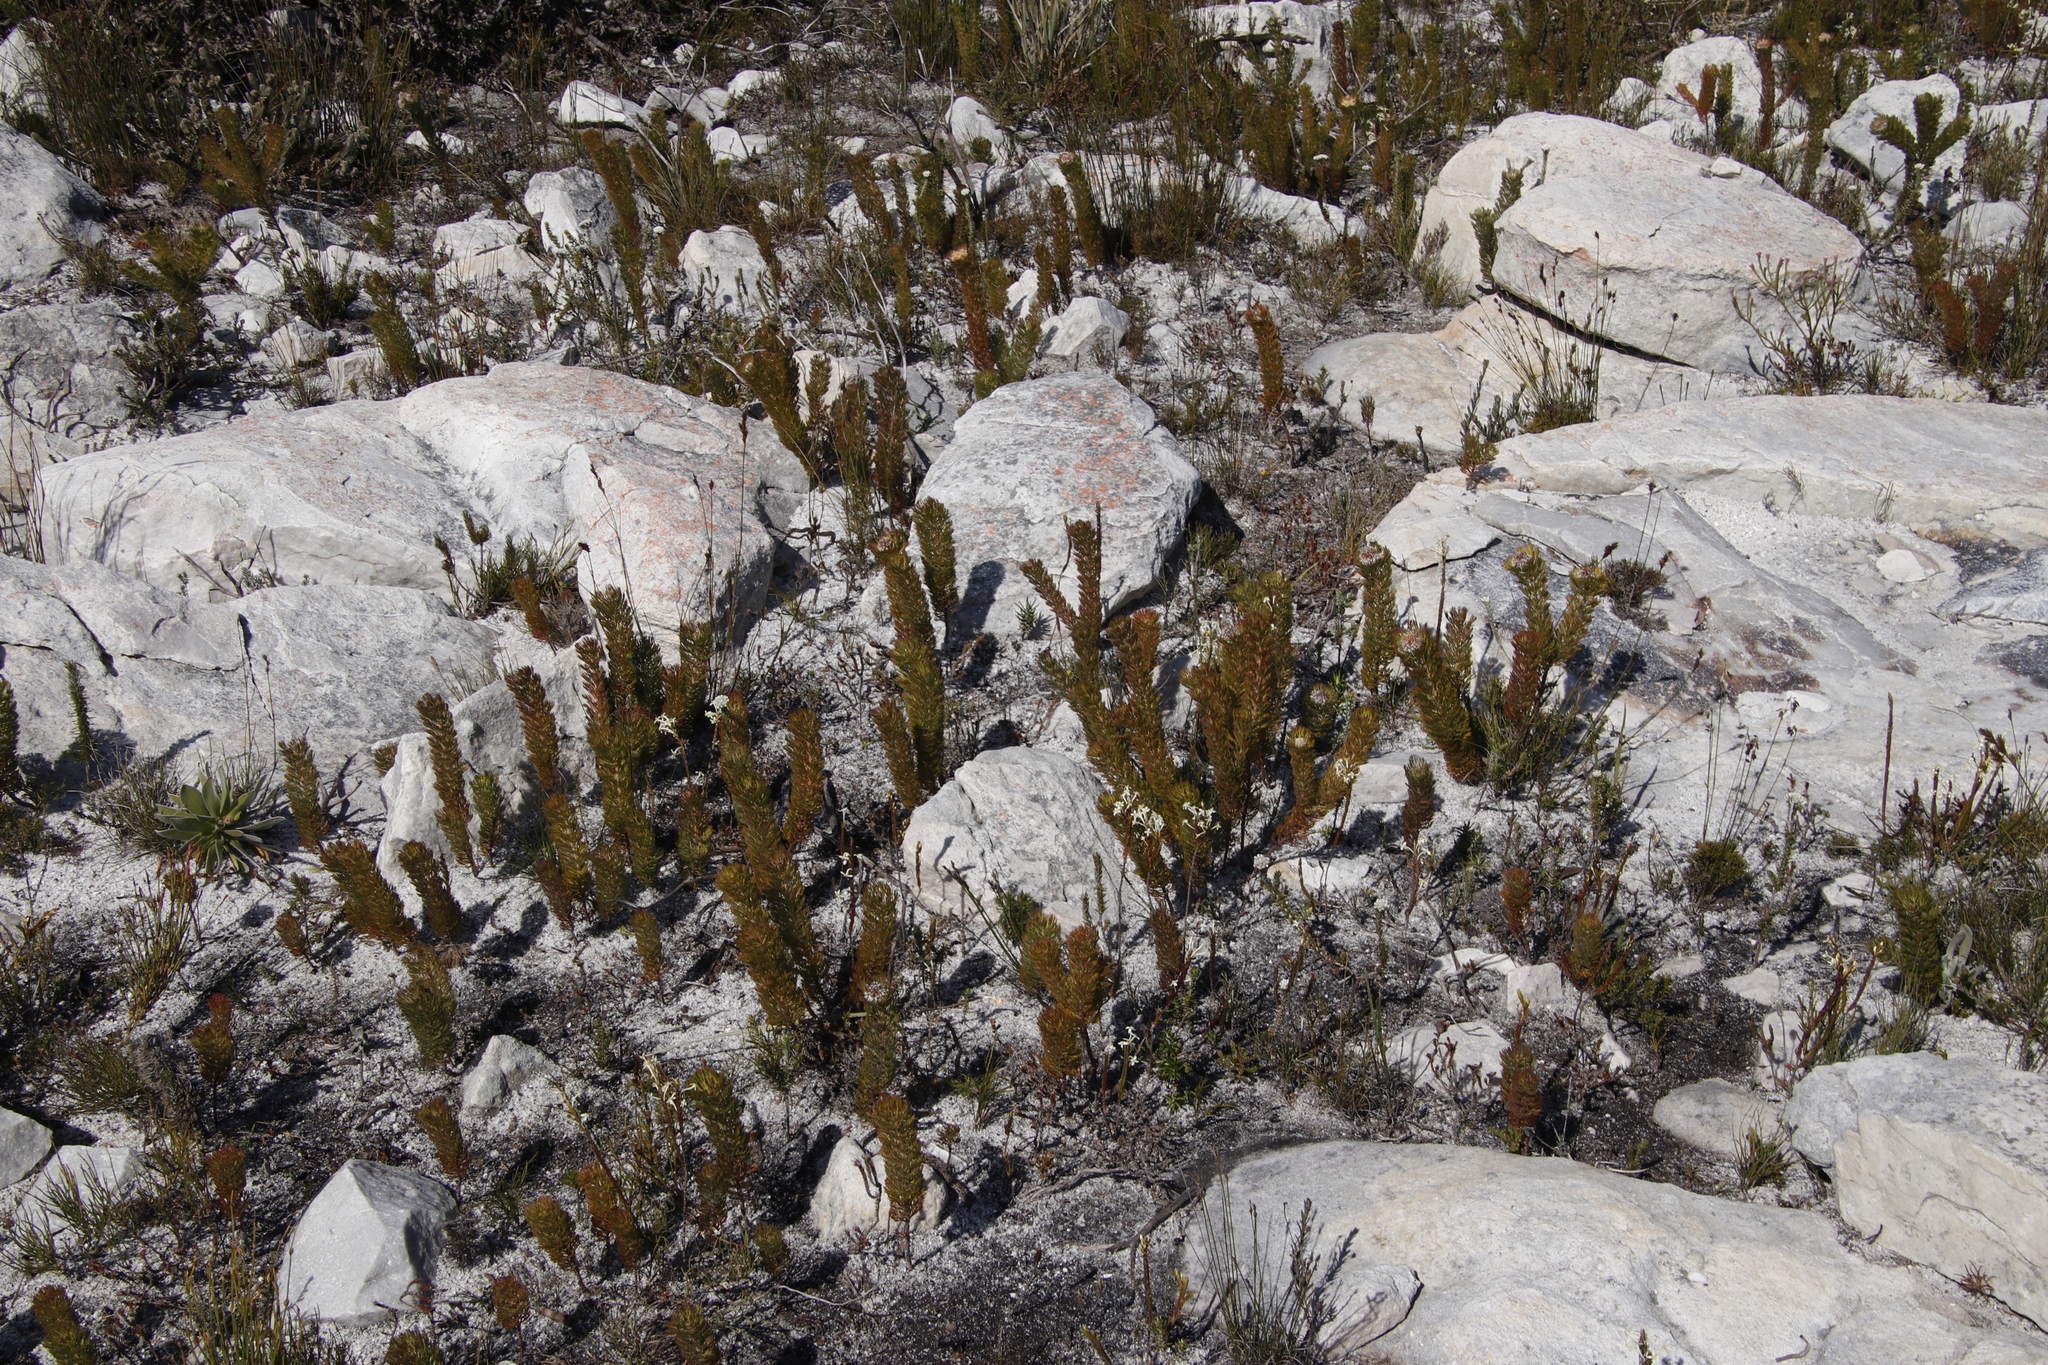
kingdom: Plantae
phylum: Tracheophyta
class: Magnoliopsida
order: Proteales
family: Proteaceae
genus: Serruria
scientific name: Serruria villosa
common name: Golden spiderhead
